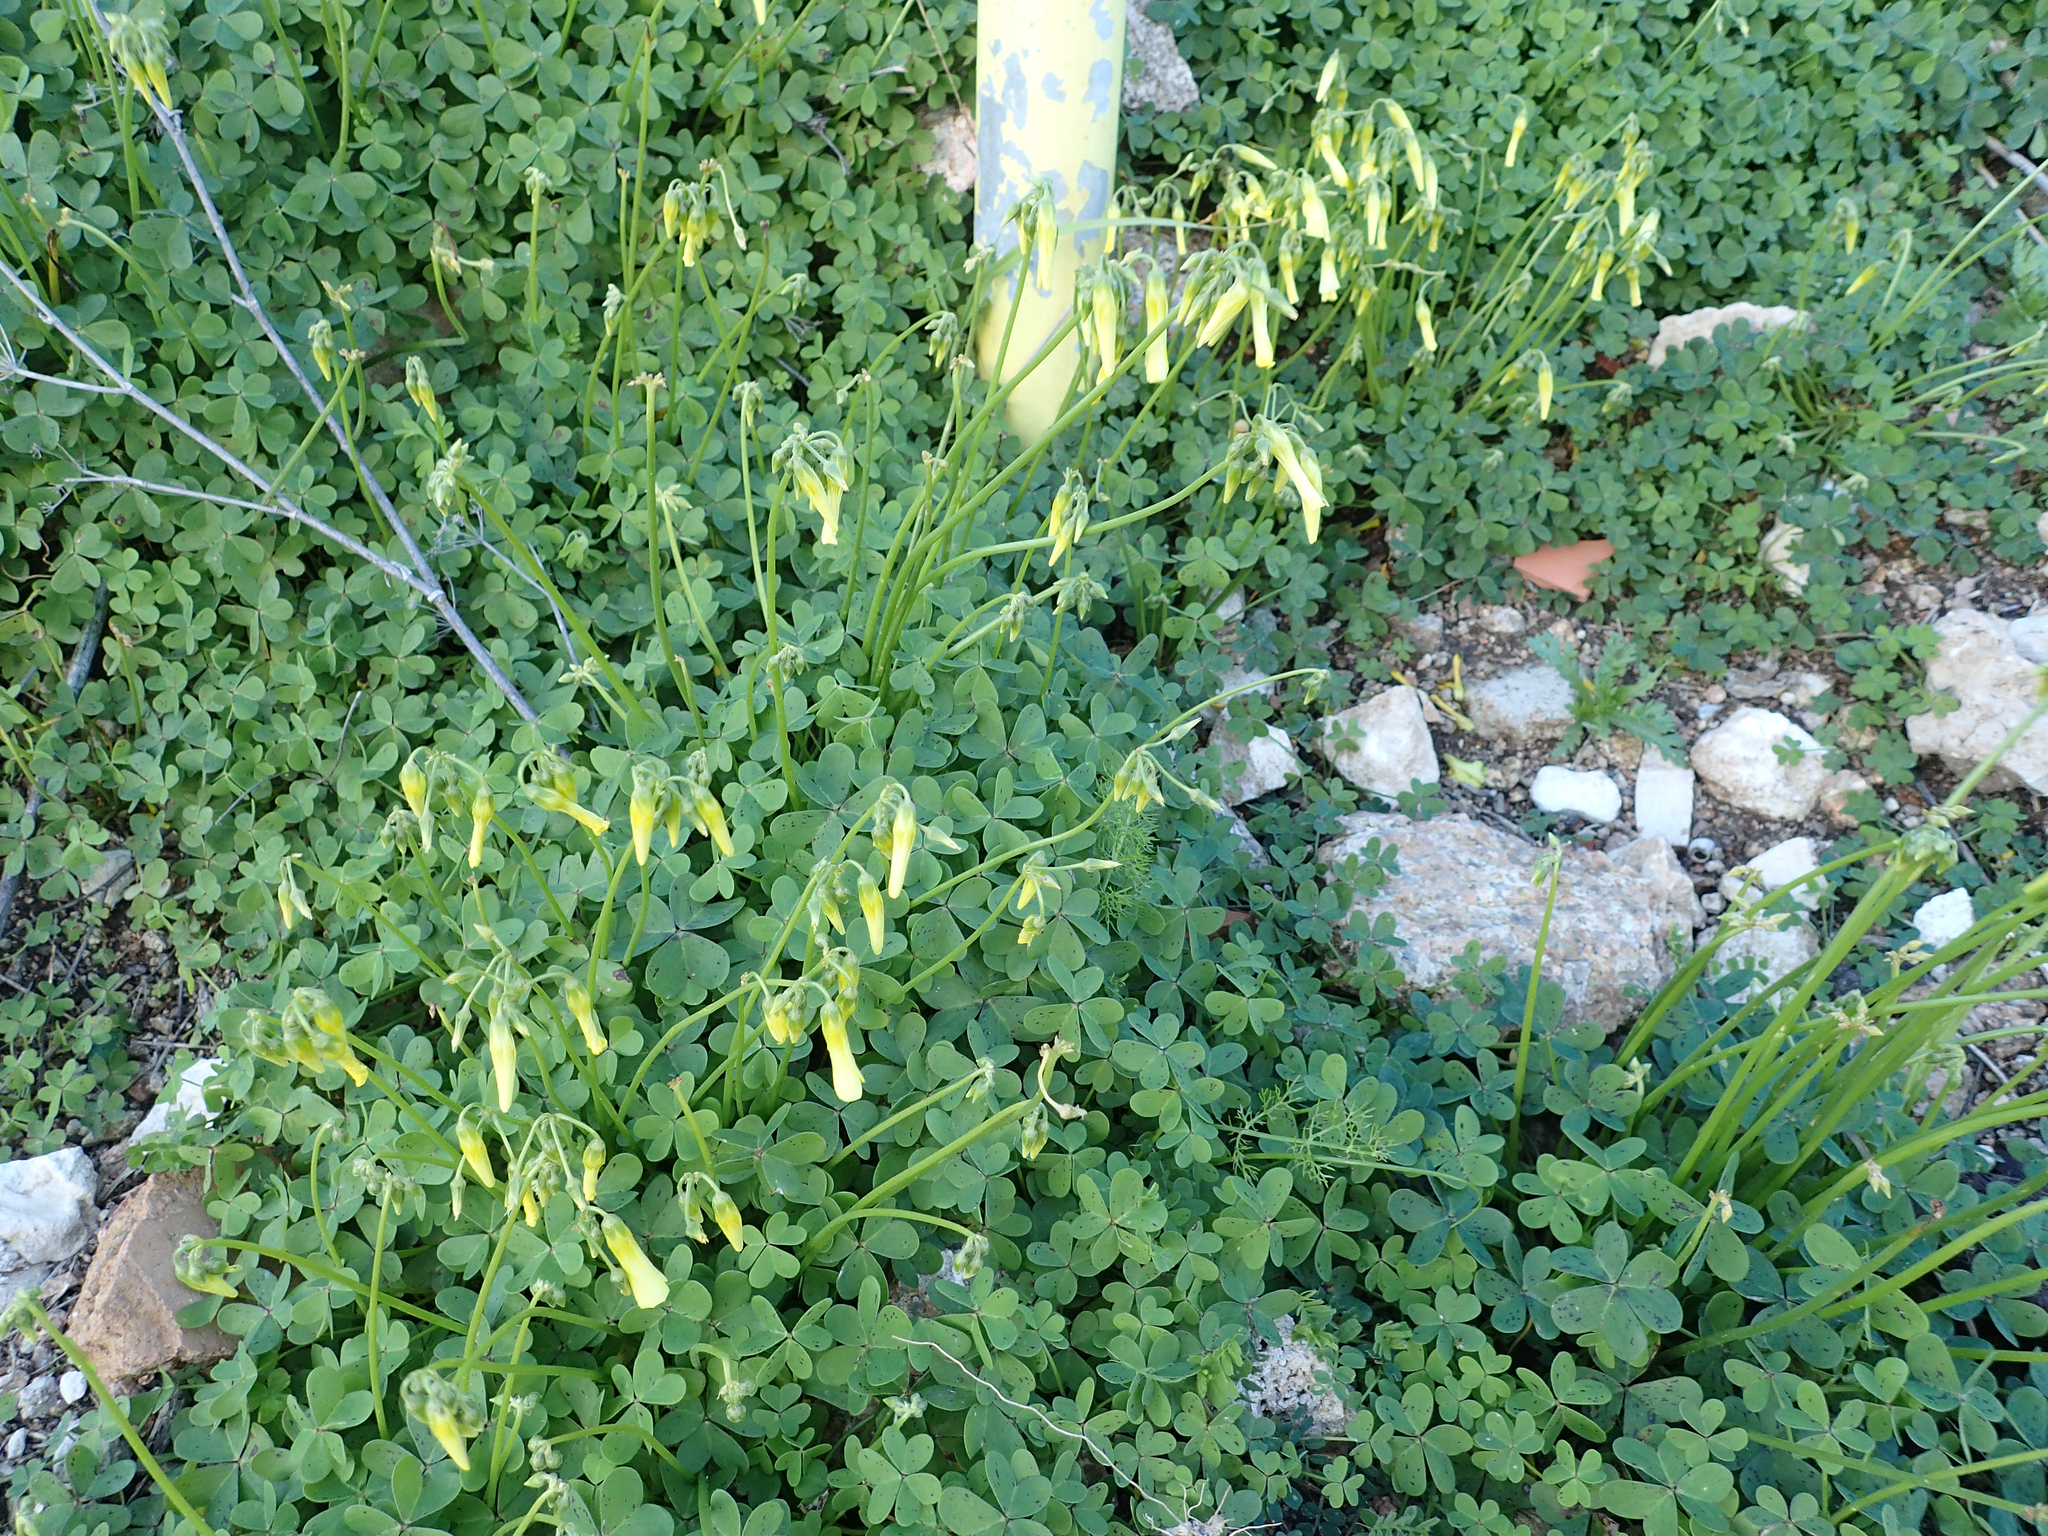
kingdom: Plantae
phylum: Tracheophyta
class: Magnoliopsida
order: Oxalidales
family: Oxalidaceae
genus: Oxalis
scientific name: Oxalis pes-caprae
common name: Bermuda-buttercup
